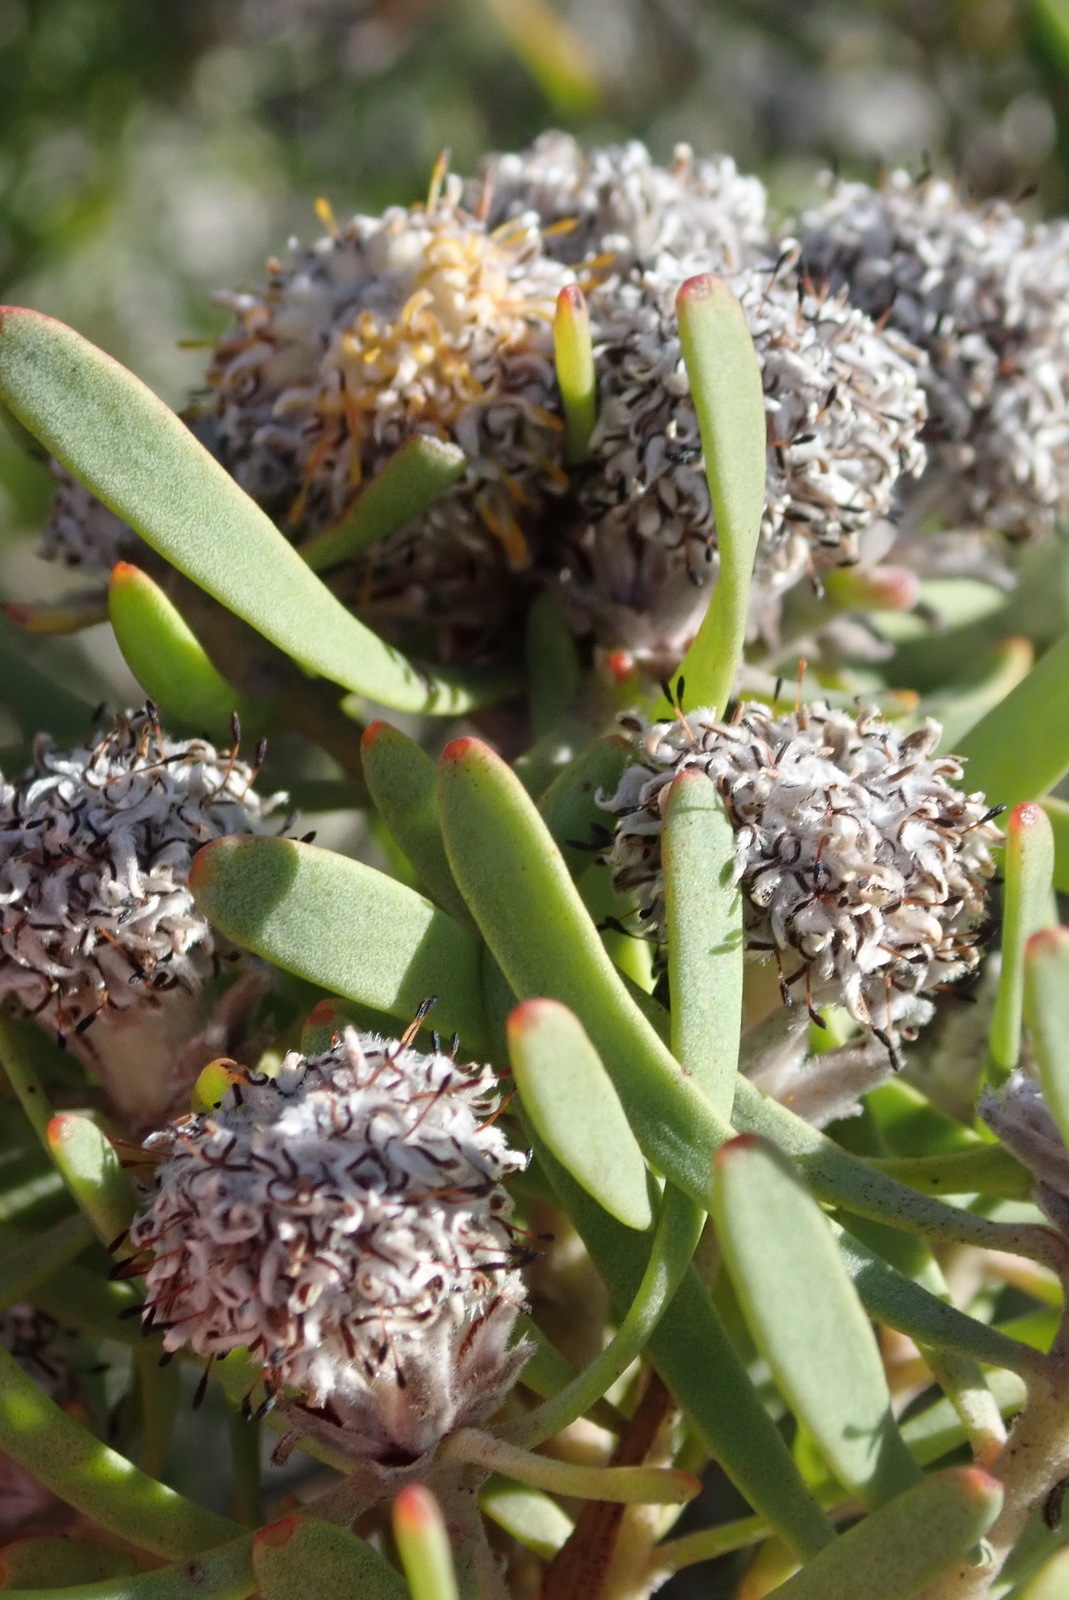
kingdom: Plantae
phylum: Tracheophyta
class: Magnoliopsida
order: Proteales
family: Proteaceae
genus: Leucadendron
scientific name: Leucadendron galpinii
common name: Hairless conebush
